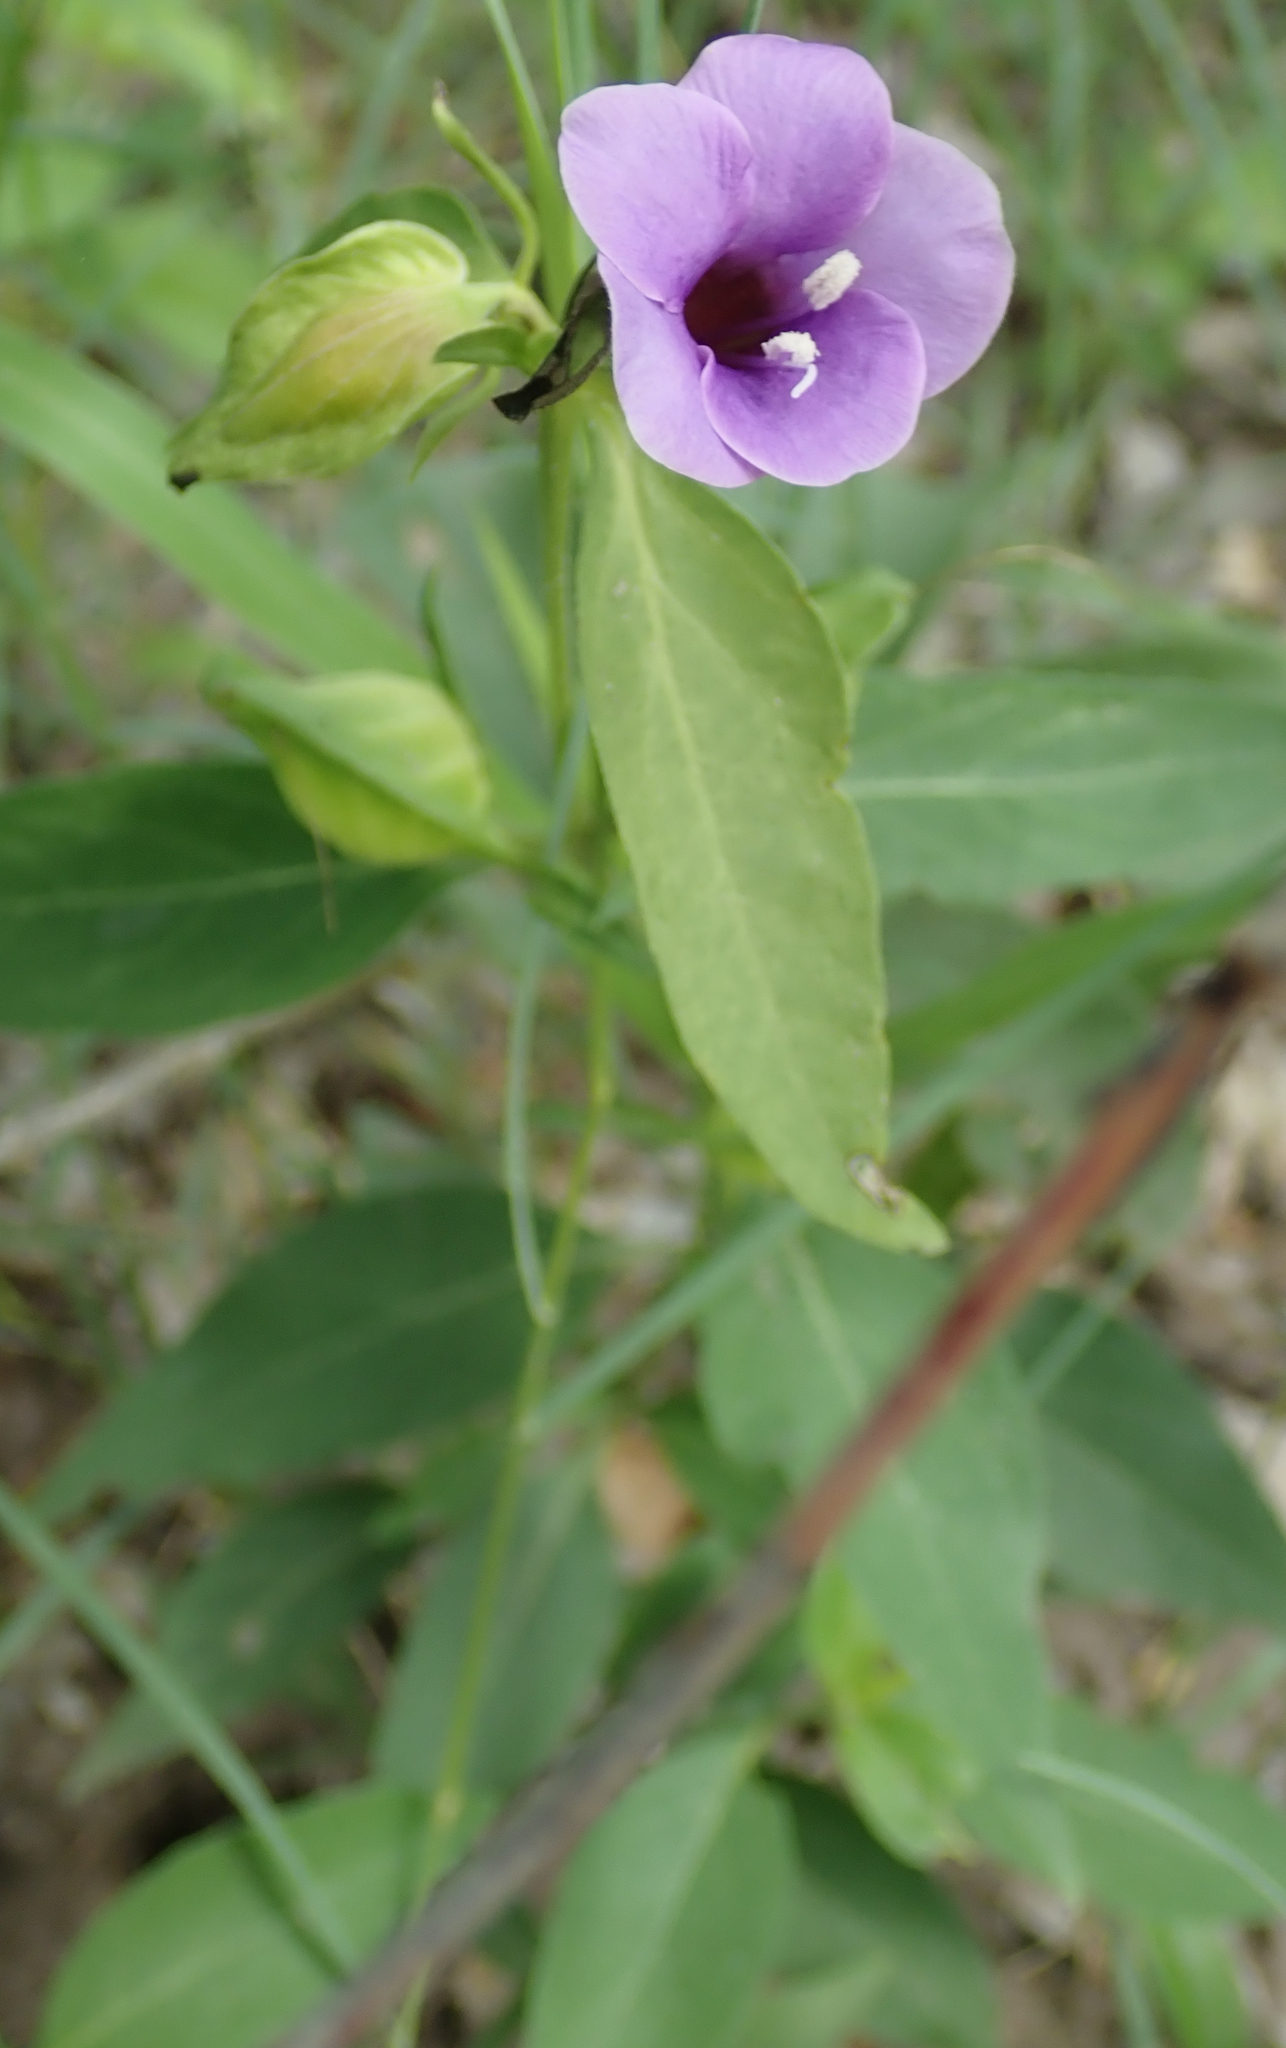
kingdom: Plantae
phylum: Tracheophyta
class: Magnoliopsida
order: Lamiales
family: Acanthaceae
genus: Barleria
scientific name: Barleria mackenii
